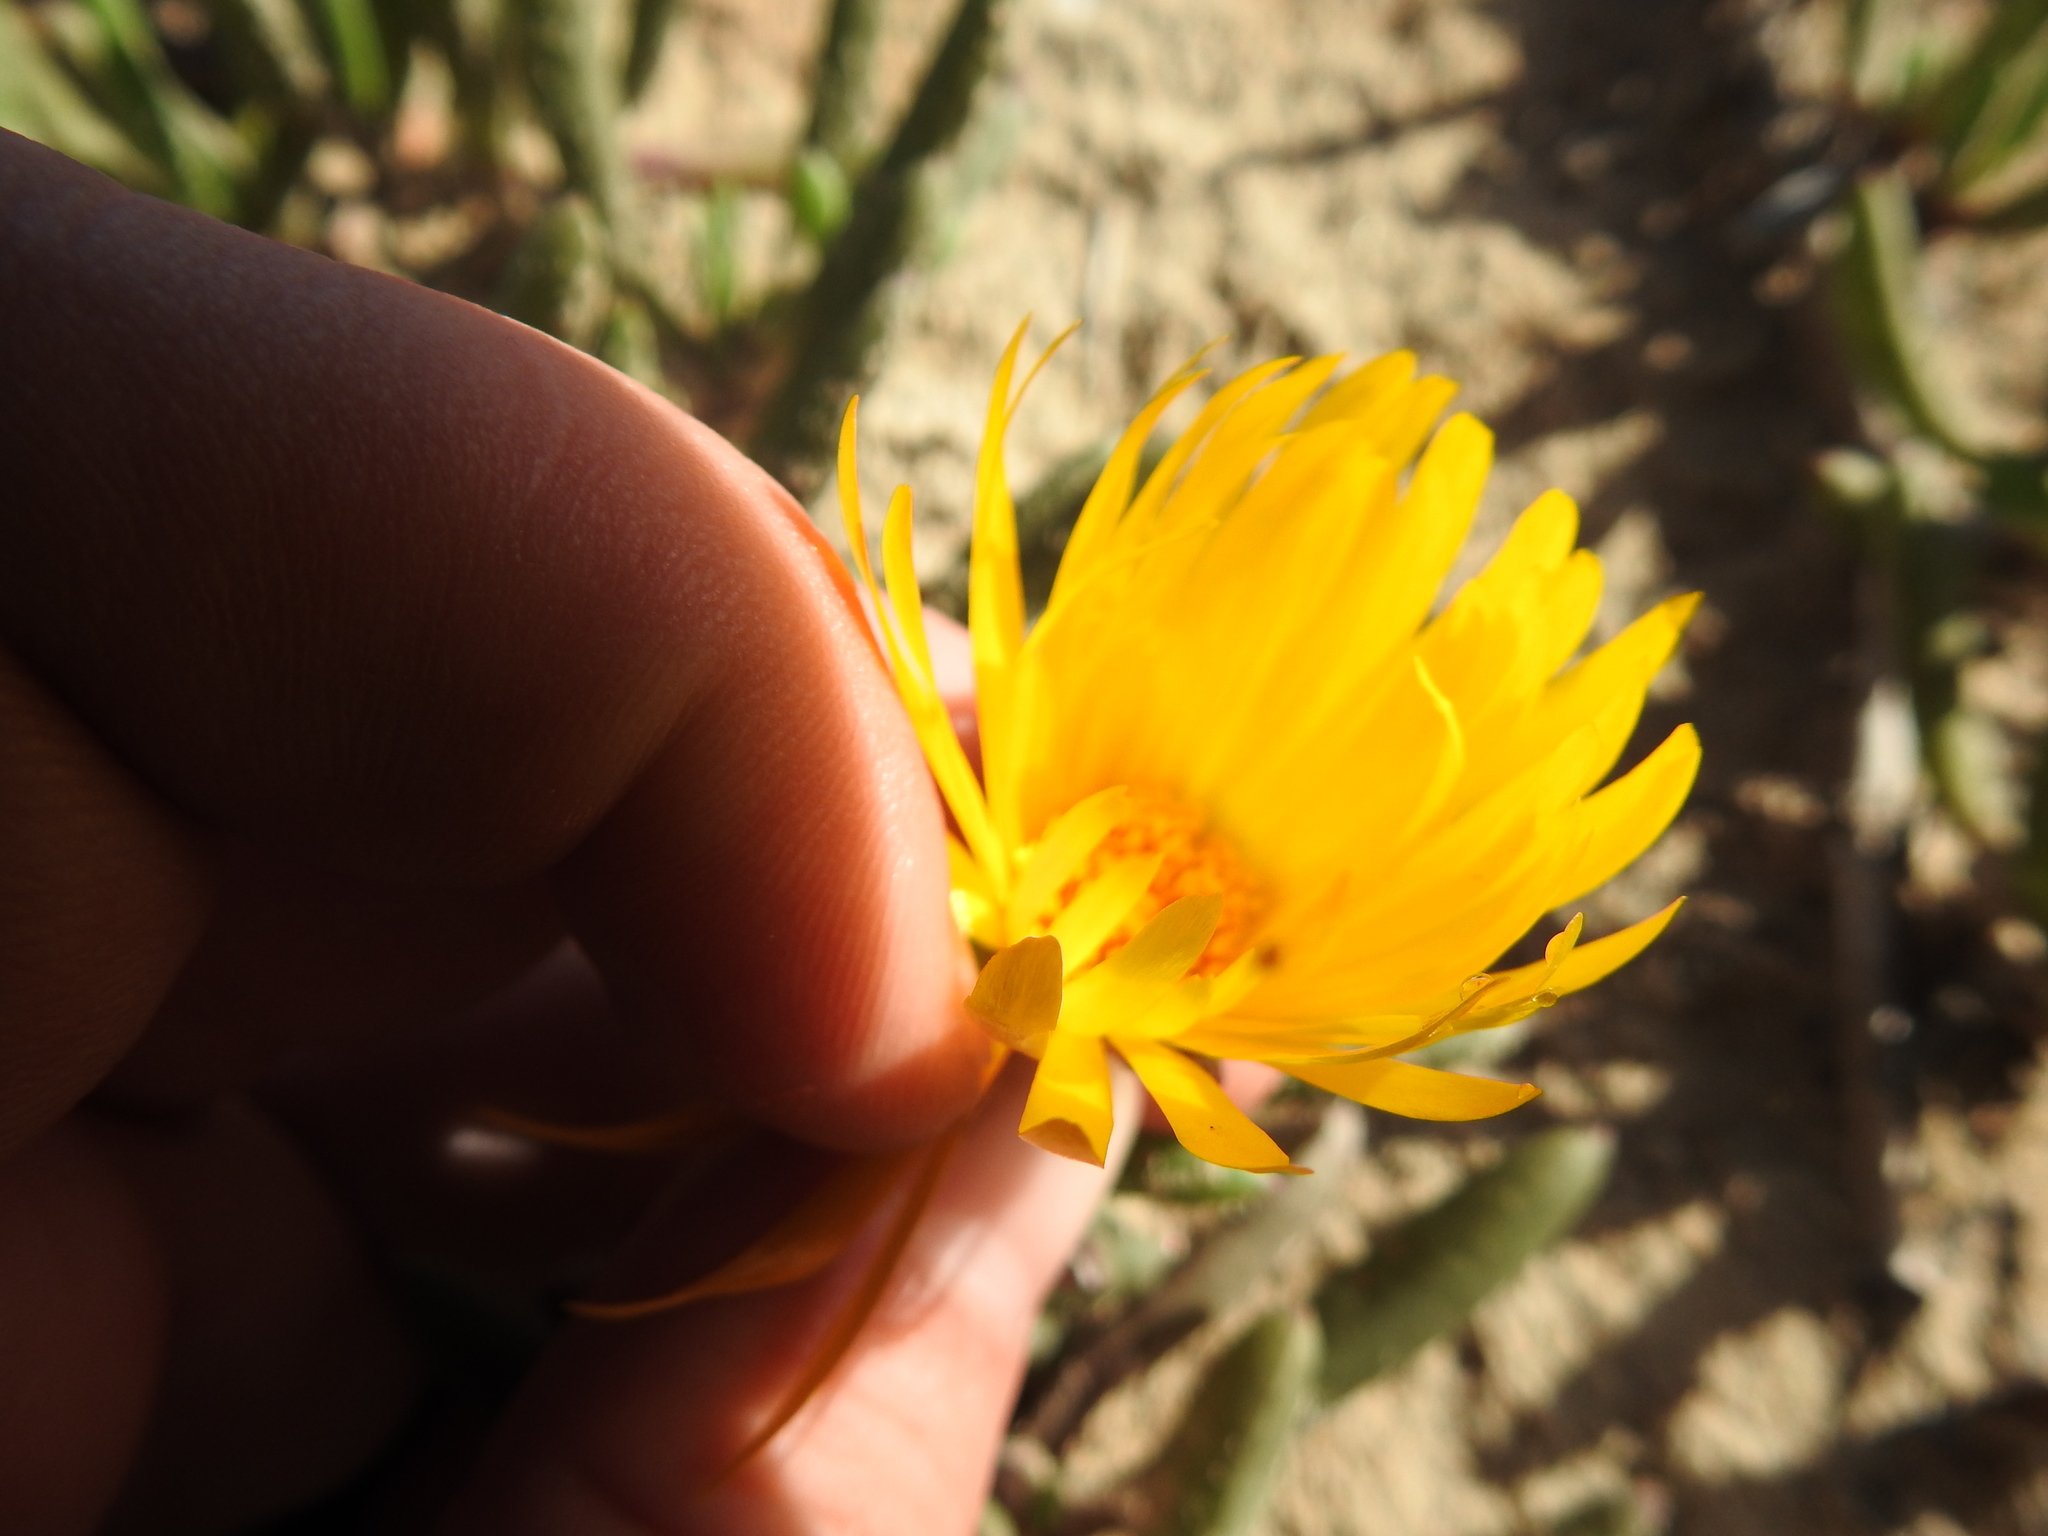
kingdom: Plantae
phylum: Tracheophyta
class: Magnoliopsida
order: Caryophyllales
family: Aizoaceae
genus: Jordaaniella
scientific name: Jordaaniella dubia
